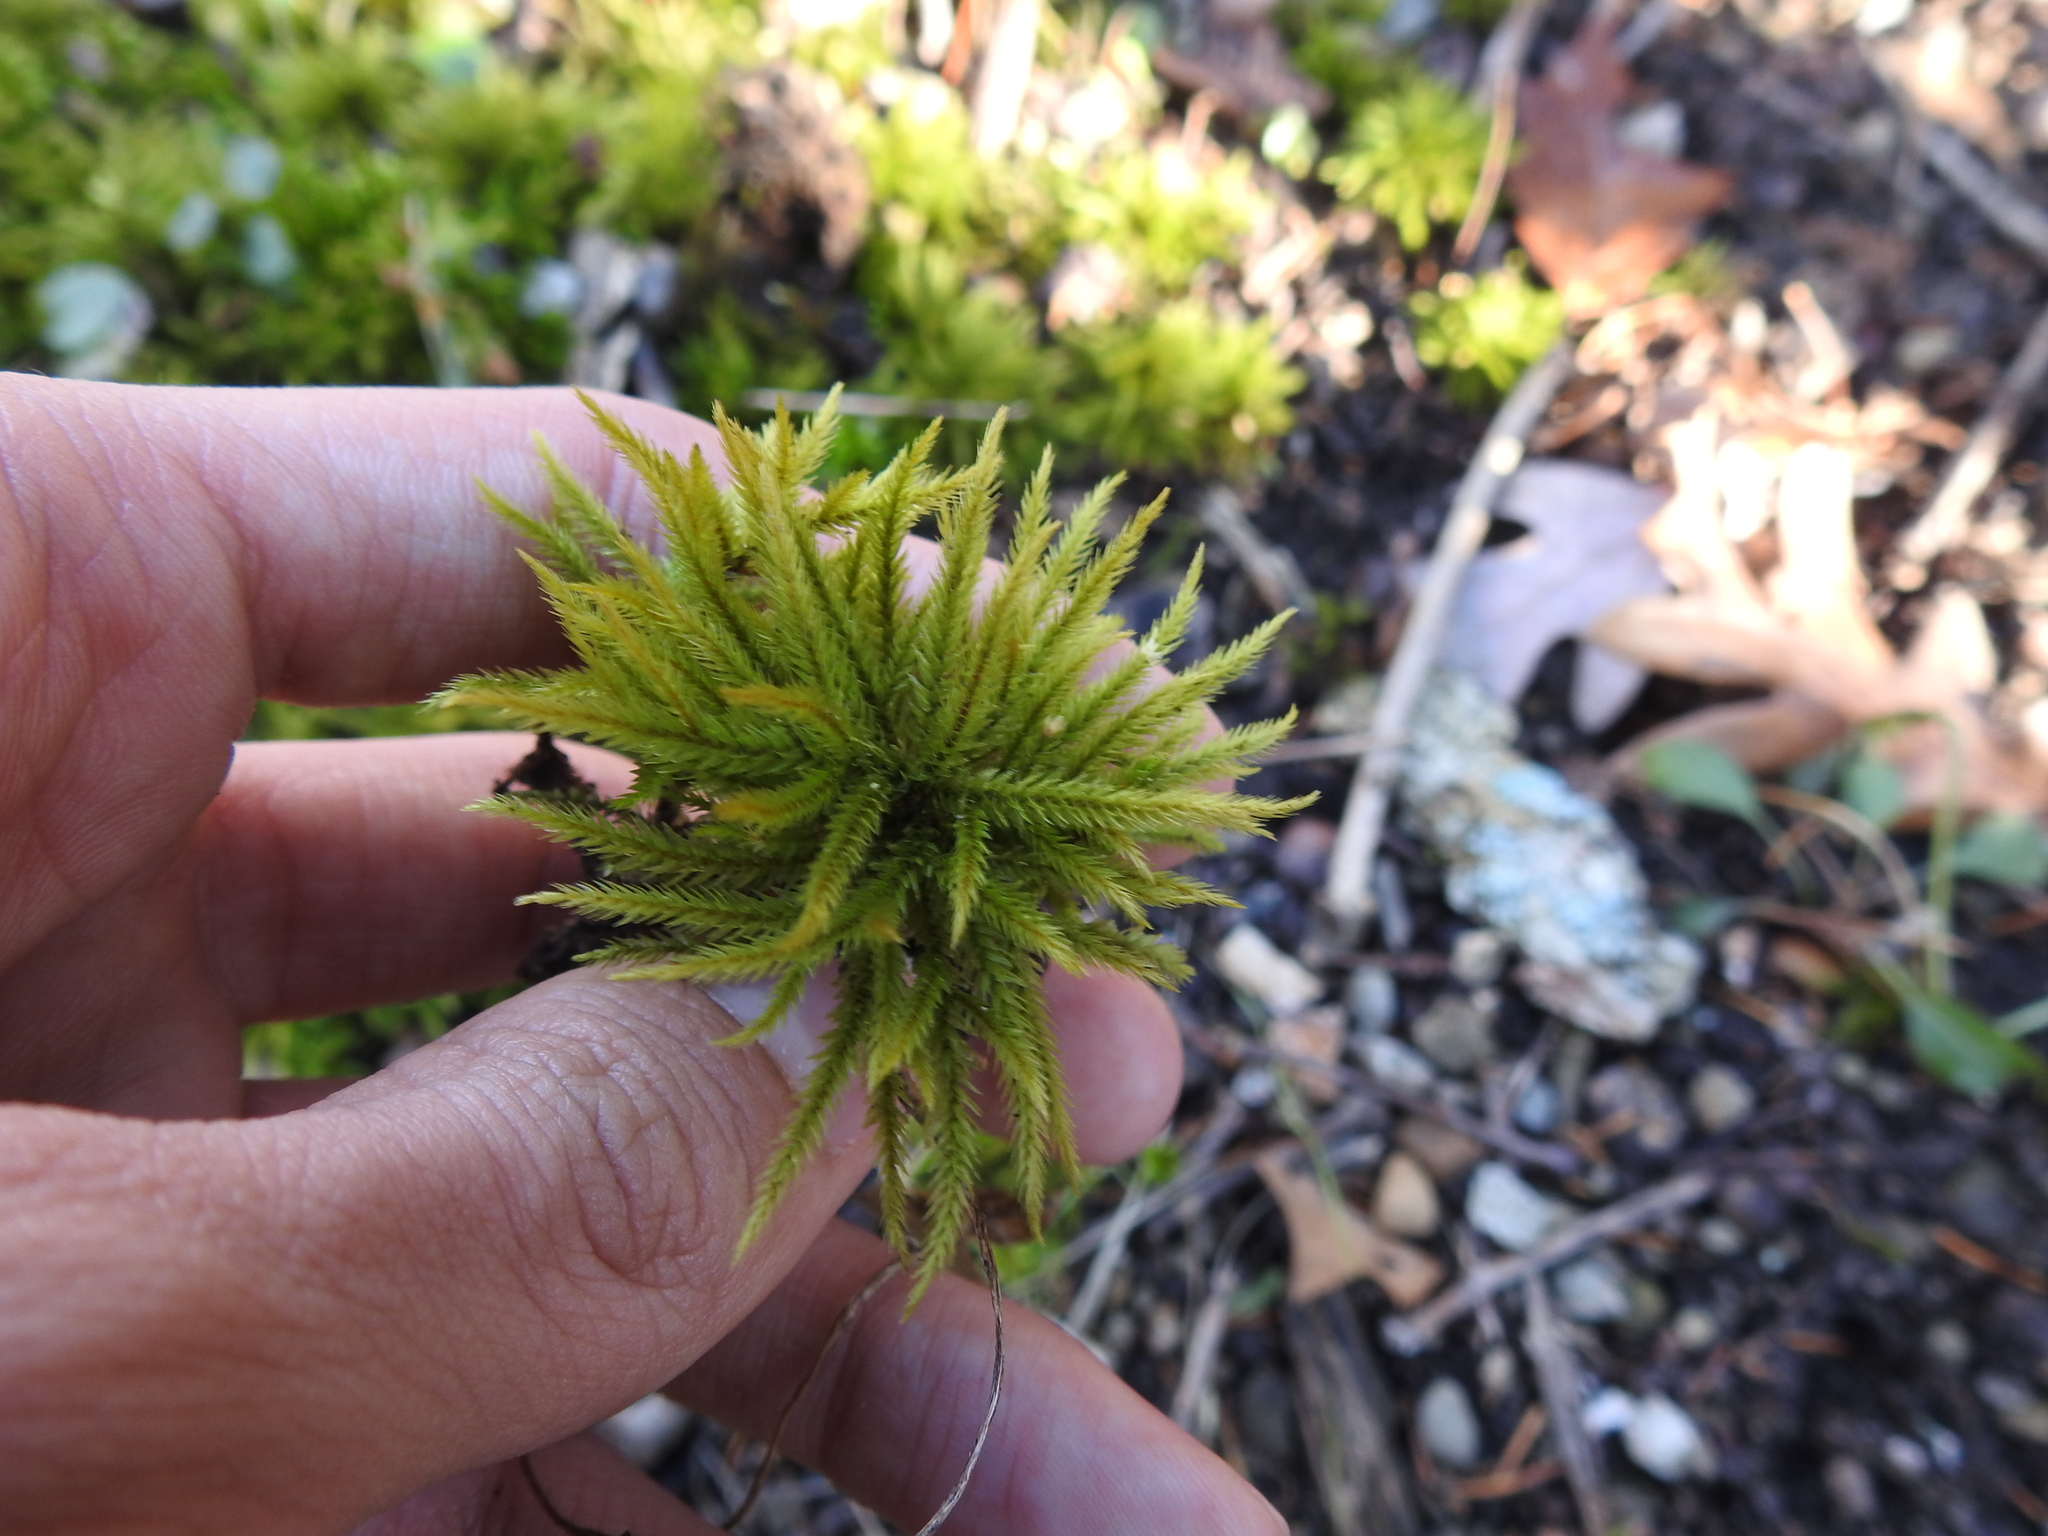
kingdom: Plantae
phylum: Bryophyta
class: Bryopsida
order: Hypnales
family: Climaciaceae
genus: Climacium
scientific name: Climacium americanum
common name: American tree moss
